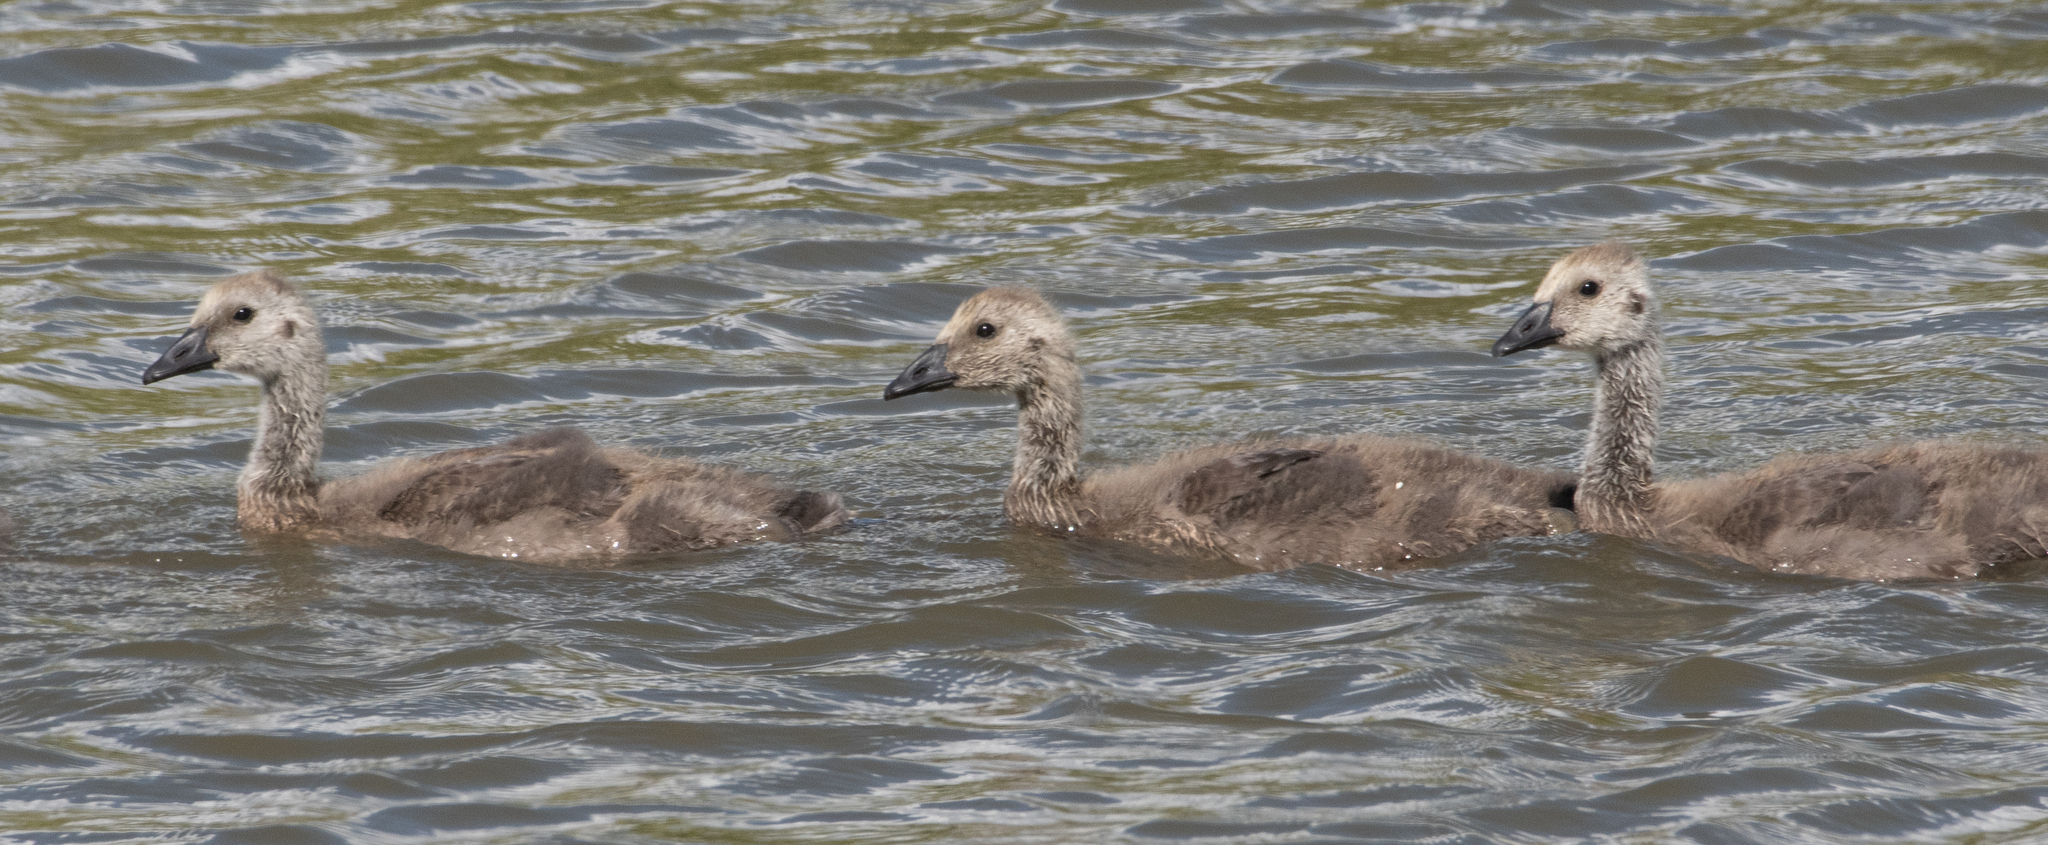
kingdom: Animalia
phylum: Chordata
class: Aves
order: Anseriformes
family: Anatidae
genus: Branta
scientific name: Branta canadensis
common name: Canada goose
